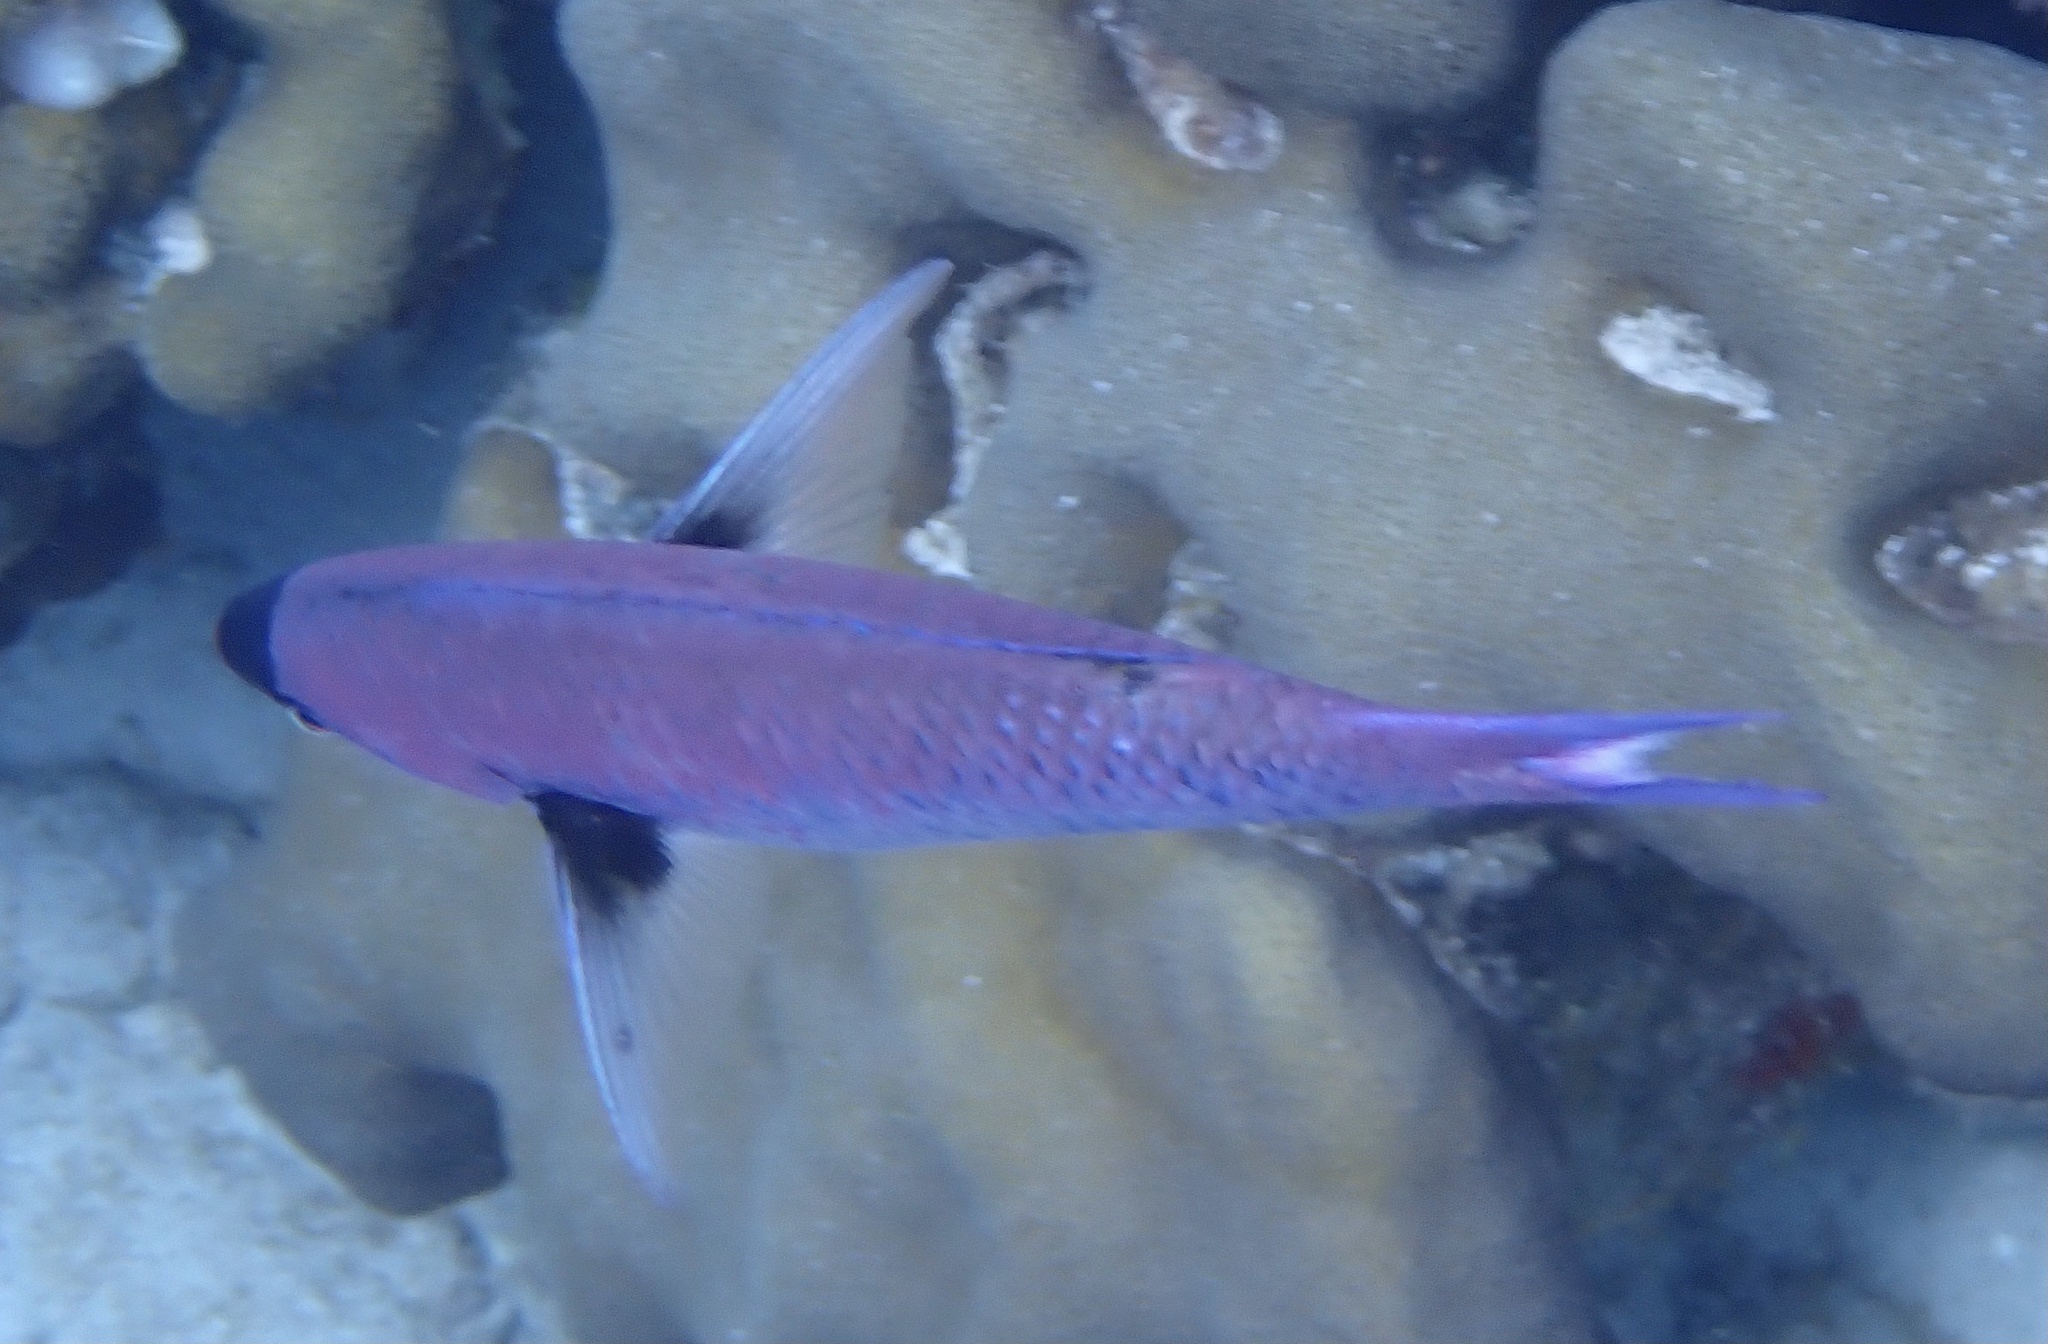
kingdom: Animalia
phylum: Chordata
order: Perciformes
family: Labridae
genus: Bodianus
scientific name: Bodianus
